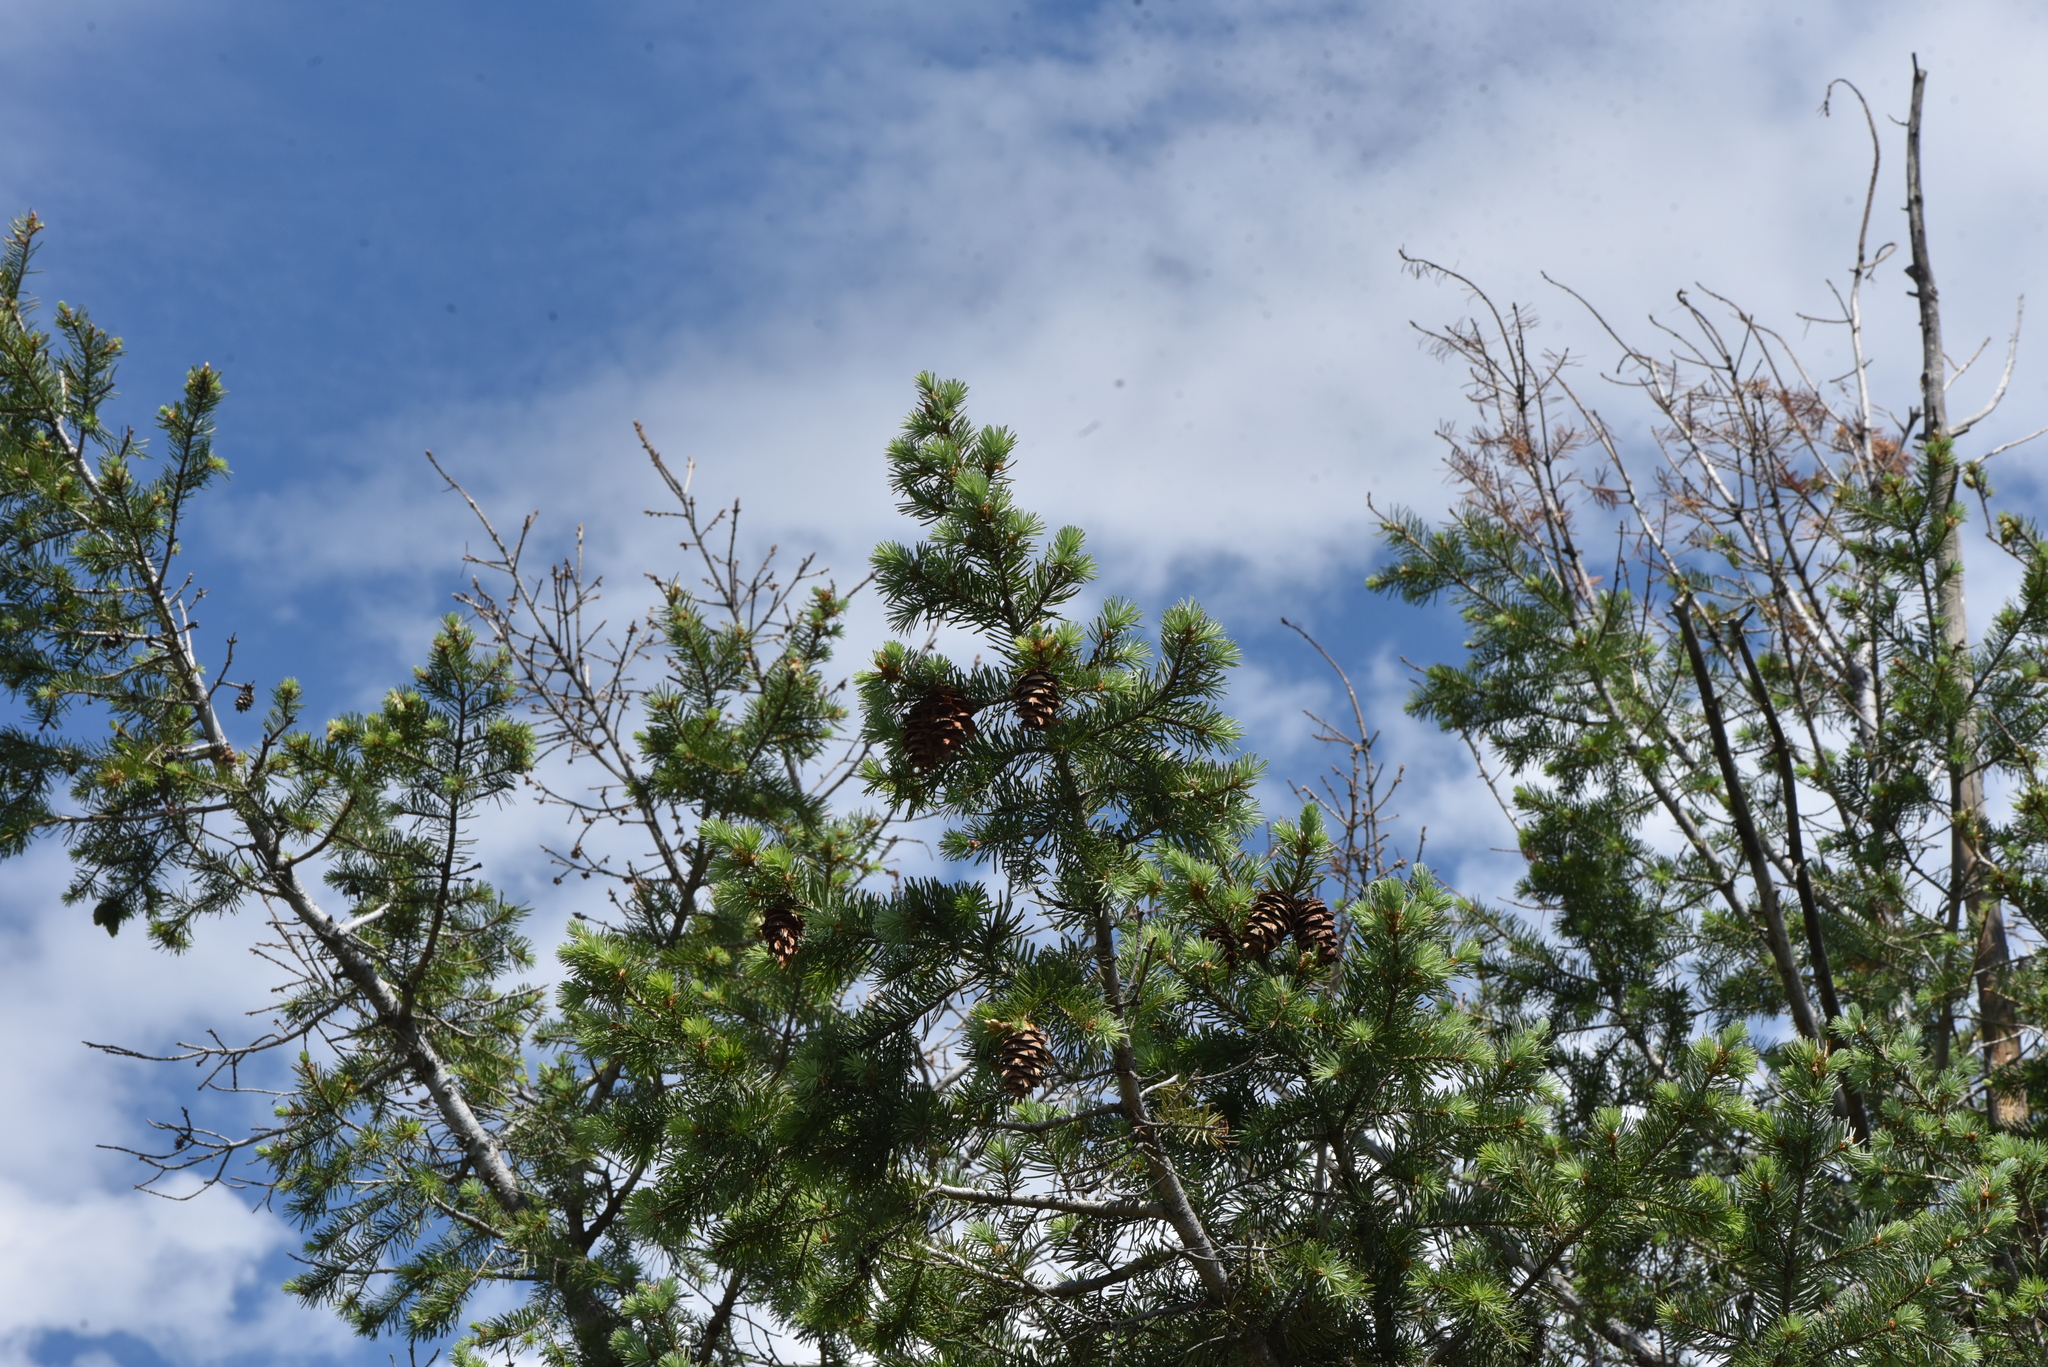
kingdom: Plantae
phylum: Tracheophyta
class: Pinopsida
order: Pinales
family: Pinaceae
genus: Pseudotsuga
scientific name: Pseudotsuga menziesii
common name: Douglas fir
